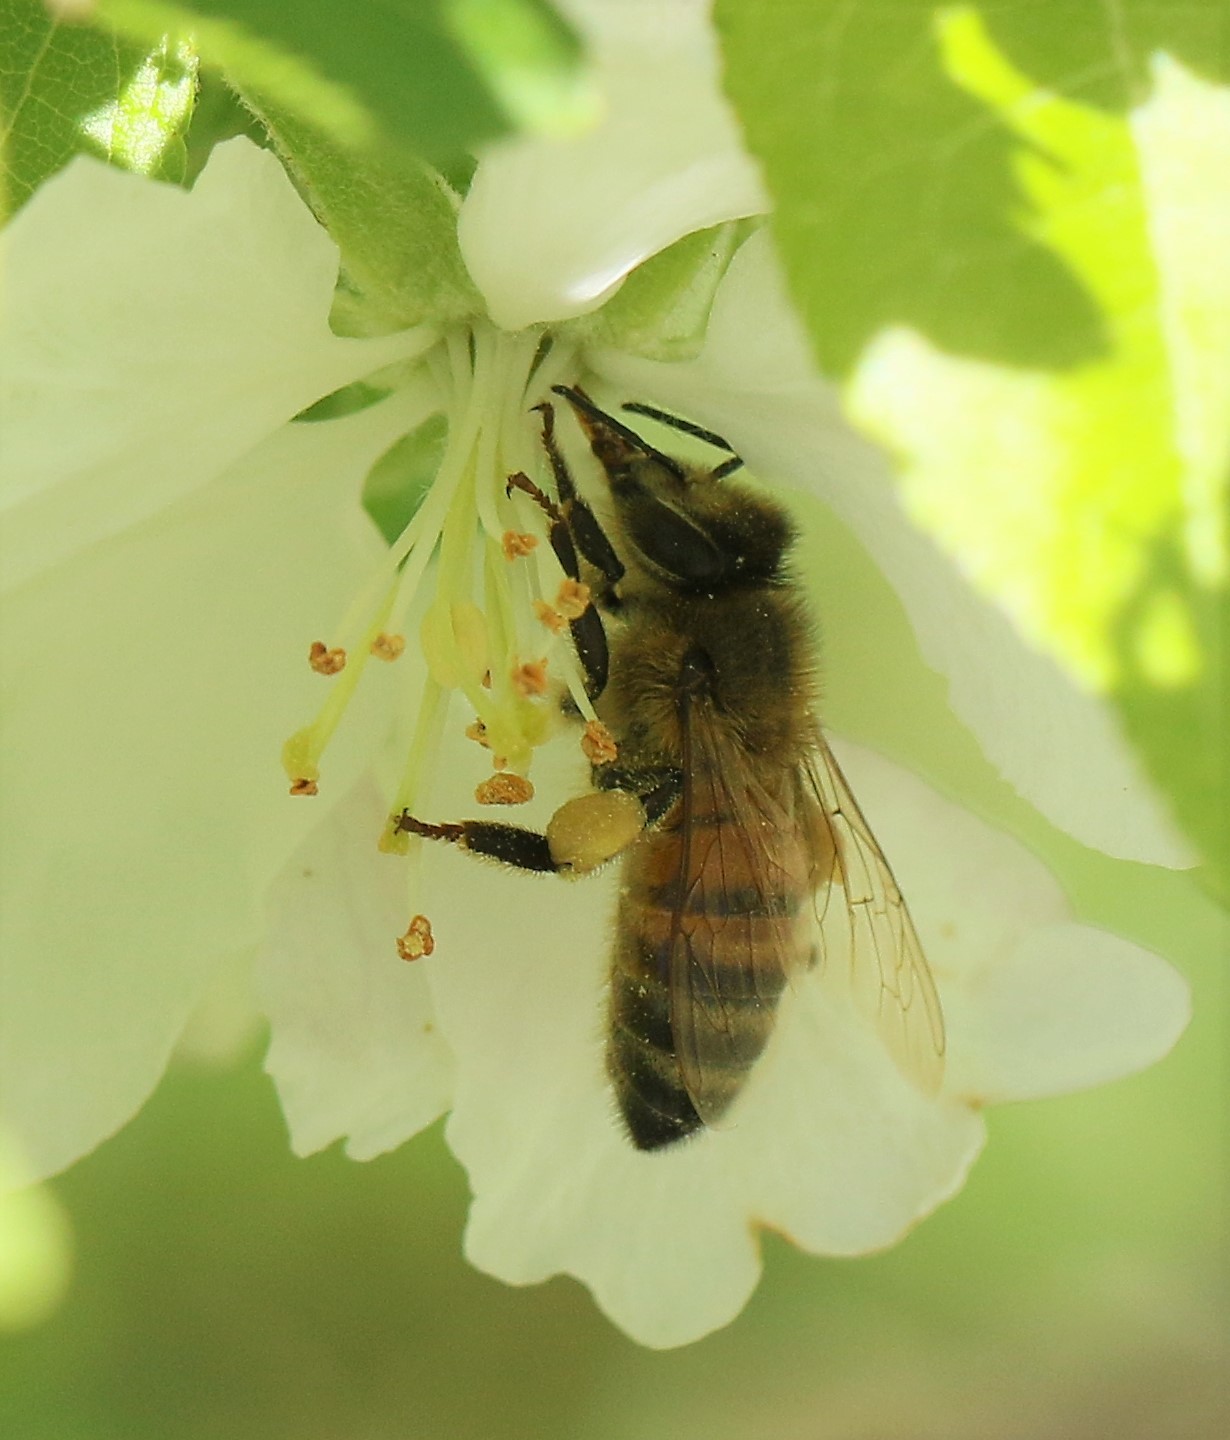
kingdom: Animalia
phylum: Arthropoda
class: Insecta
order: Hymenoptera
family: Apidae
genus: Apis
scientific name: Apis mellifera
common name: Honey bee
